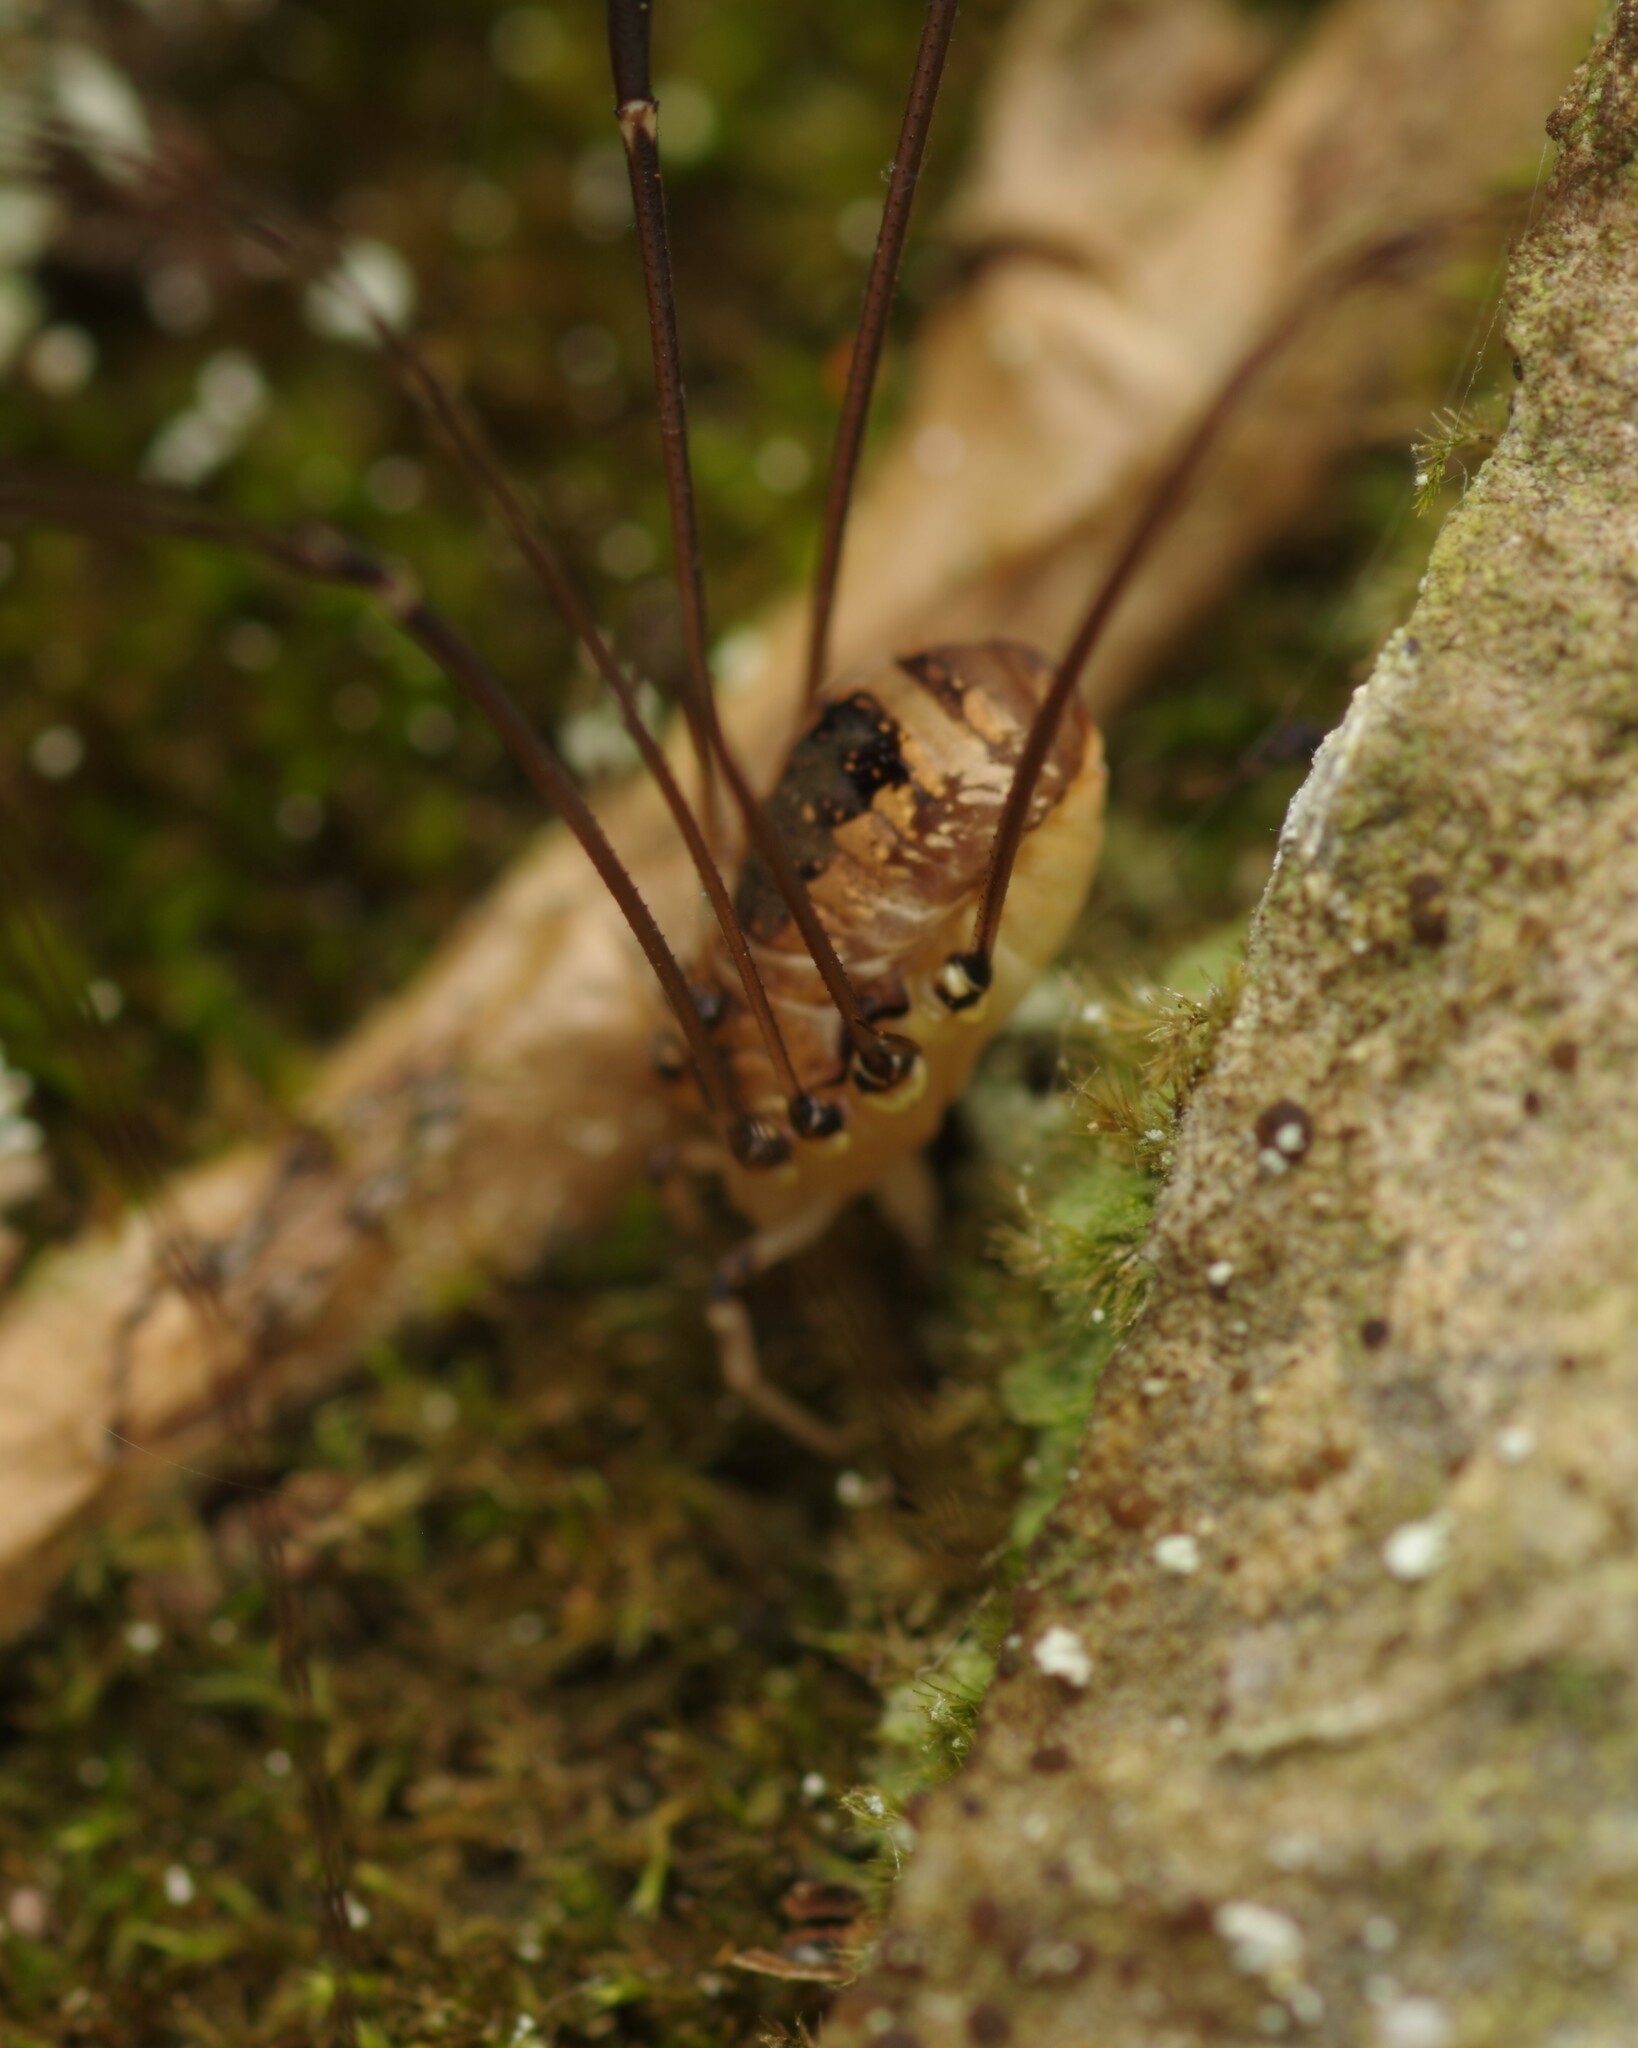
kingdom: Animalia
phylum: Arthropoda
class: Arachnida
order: Opiliones
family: Sclerosomatidae
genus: Leiobunum
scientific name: Leiobunum rotundum
